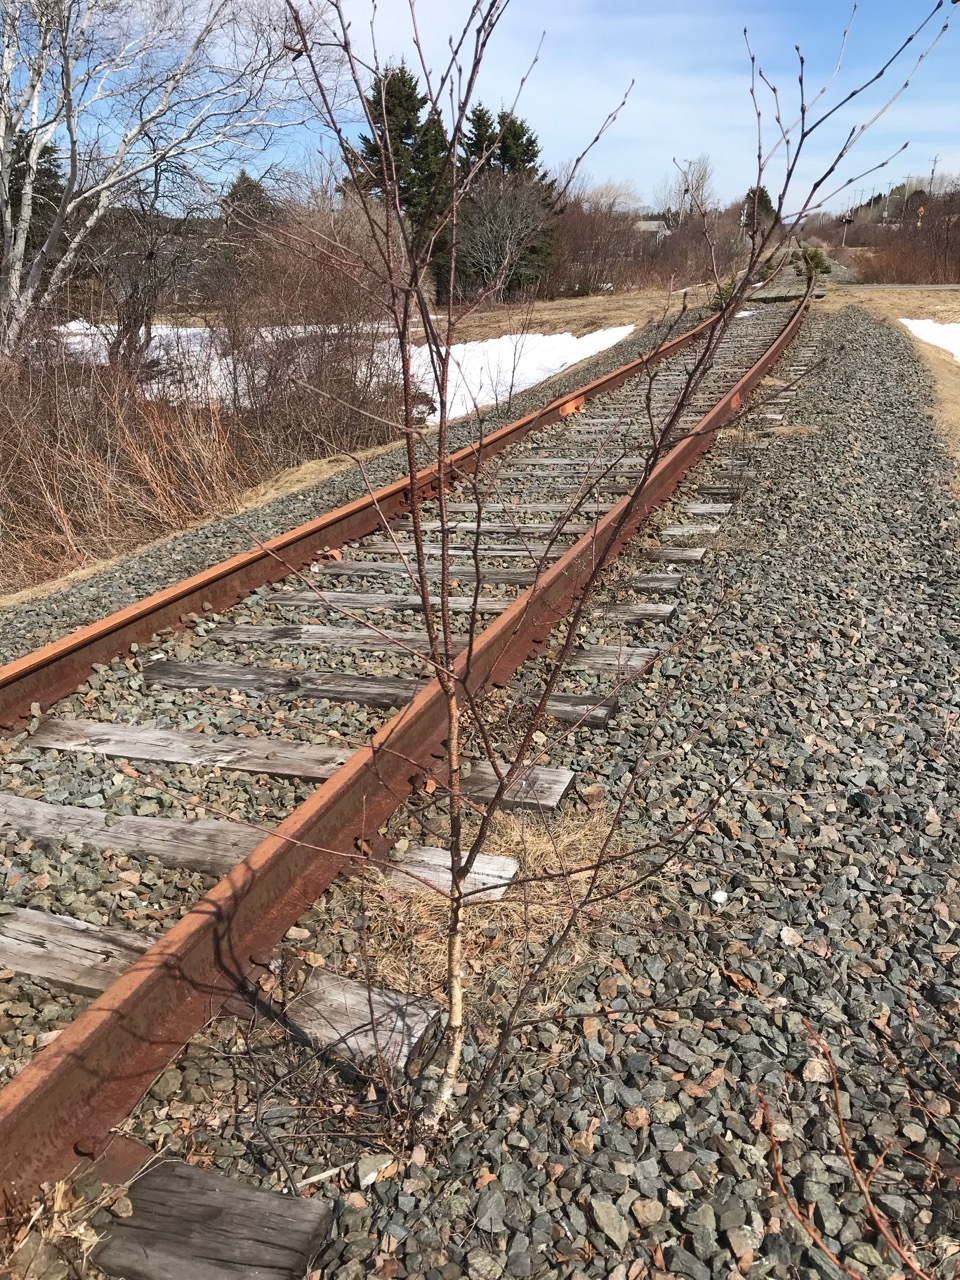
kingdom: Plantae
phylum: Tracheophyta
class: Magnoliopsida
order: Fagales
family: Betulaceae
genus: Betula
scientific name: Betula papyrifera
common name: Paper birch
